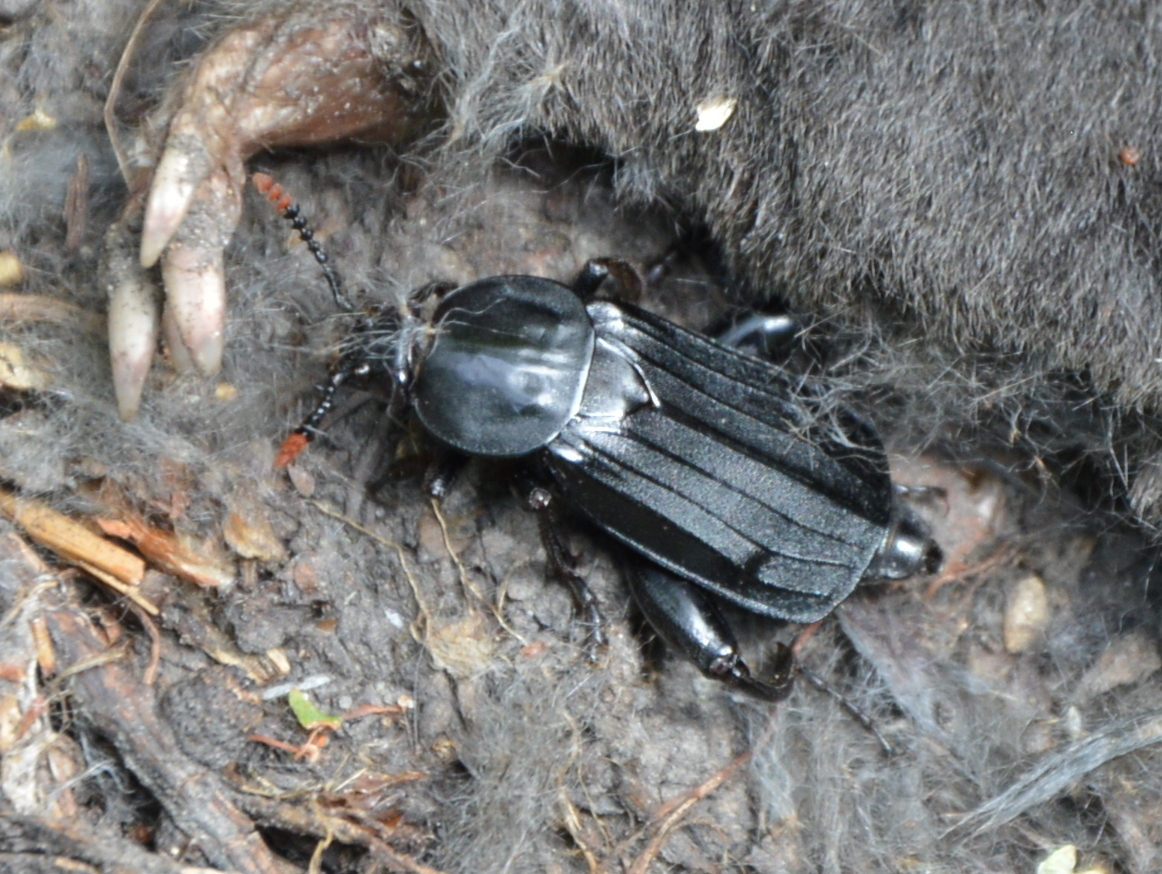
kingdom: Animalia
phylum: Arthropoda
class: Insecta
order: Coleoptera
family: Staphylinidae
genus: Necrodes
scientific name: Necrodes littoralis
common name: Shore sexton beetle
